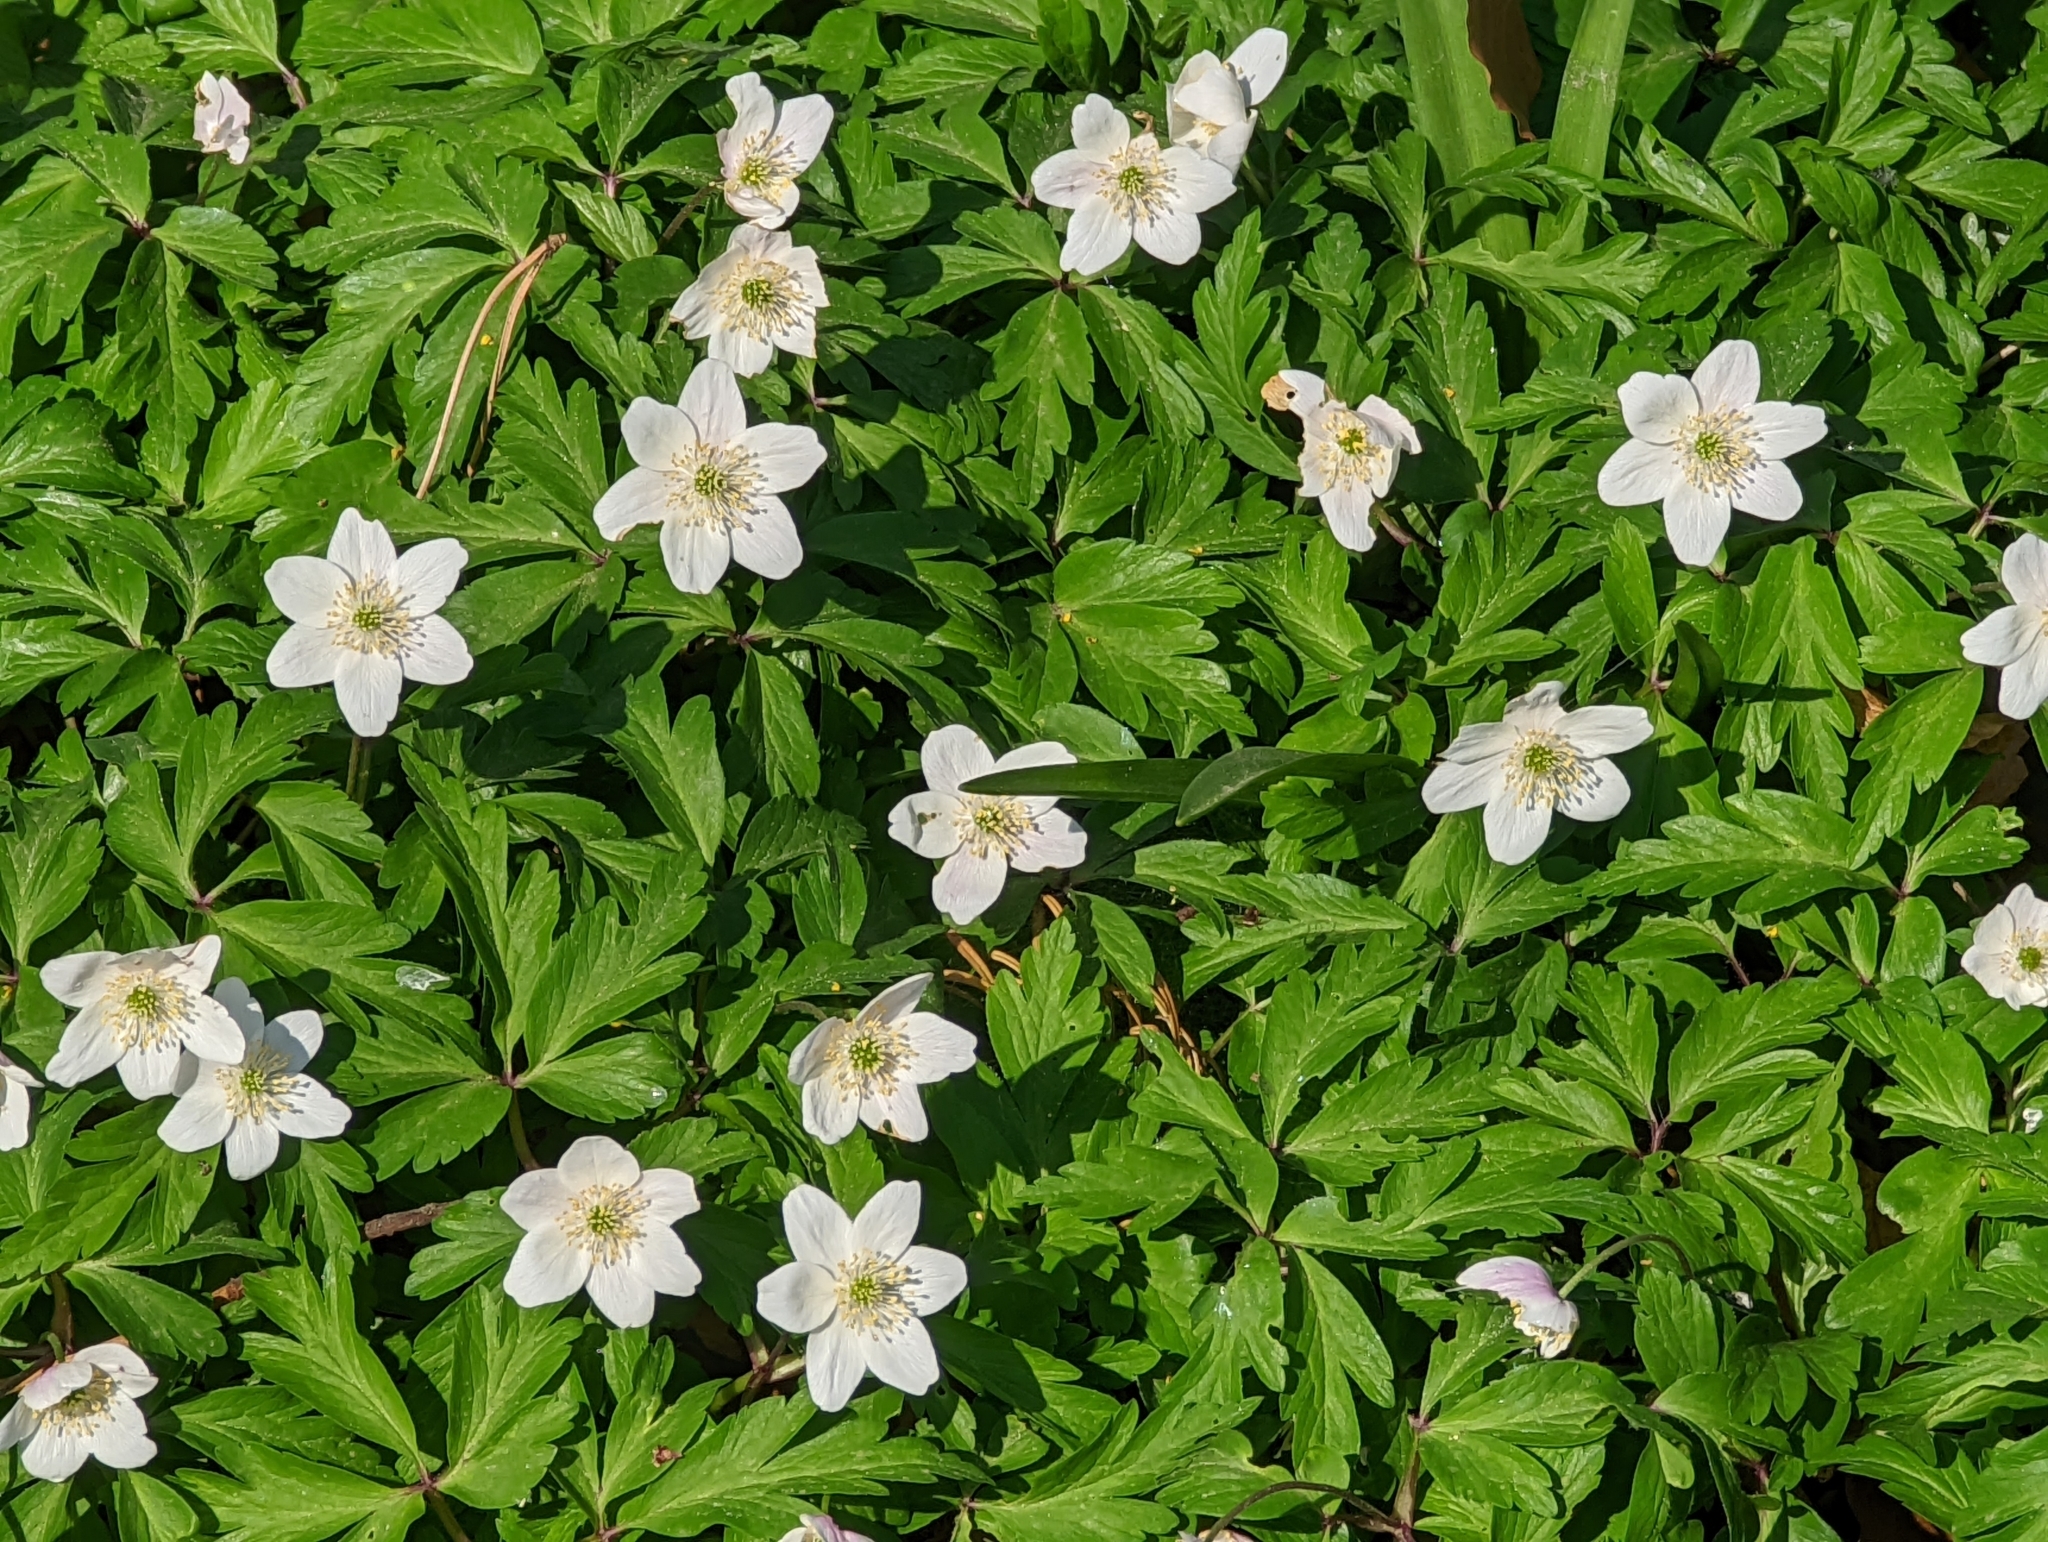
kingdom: Plantae
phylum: Tracheophyta
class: Magnoliopsida
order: Ranunculales
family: Ranunculaceae
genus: Anemone
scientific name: Anemone nemorosa
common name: Wood anemone
